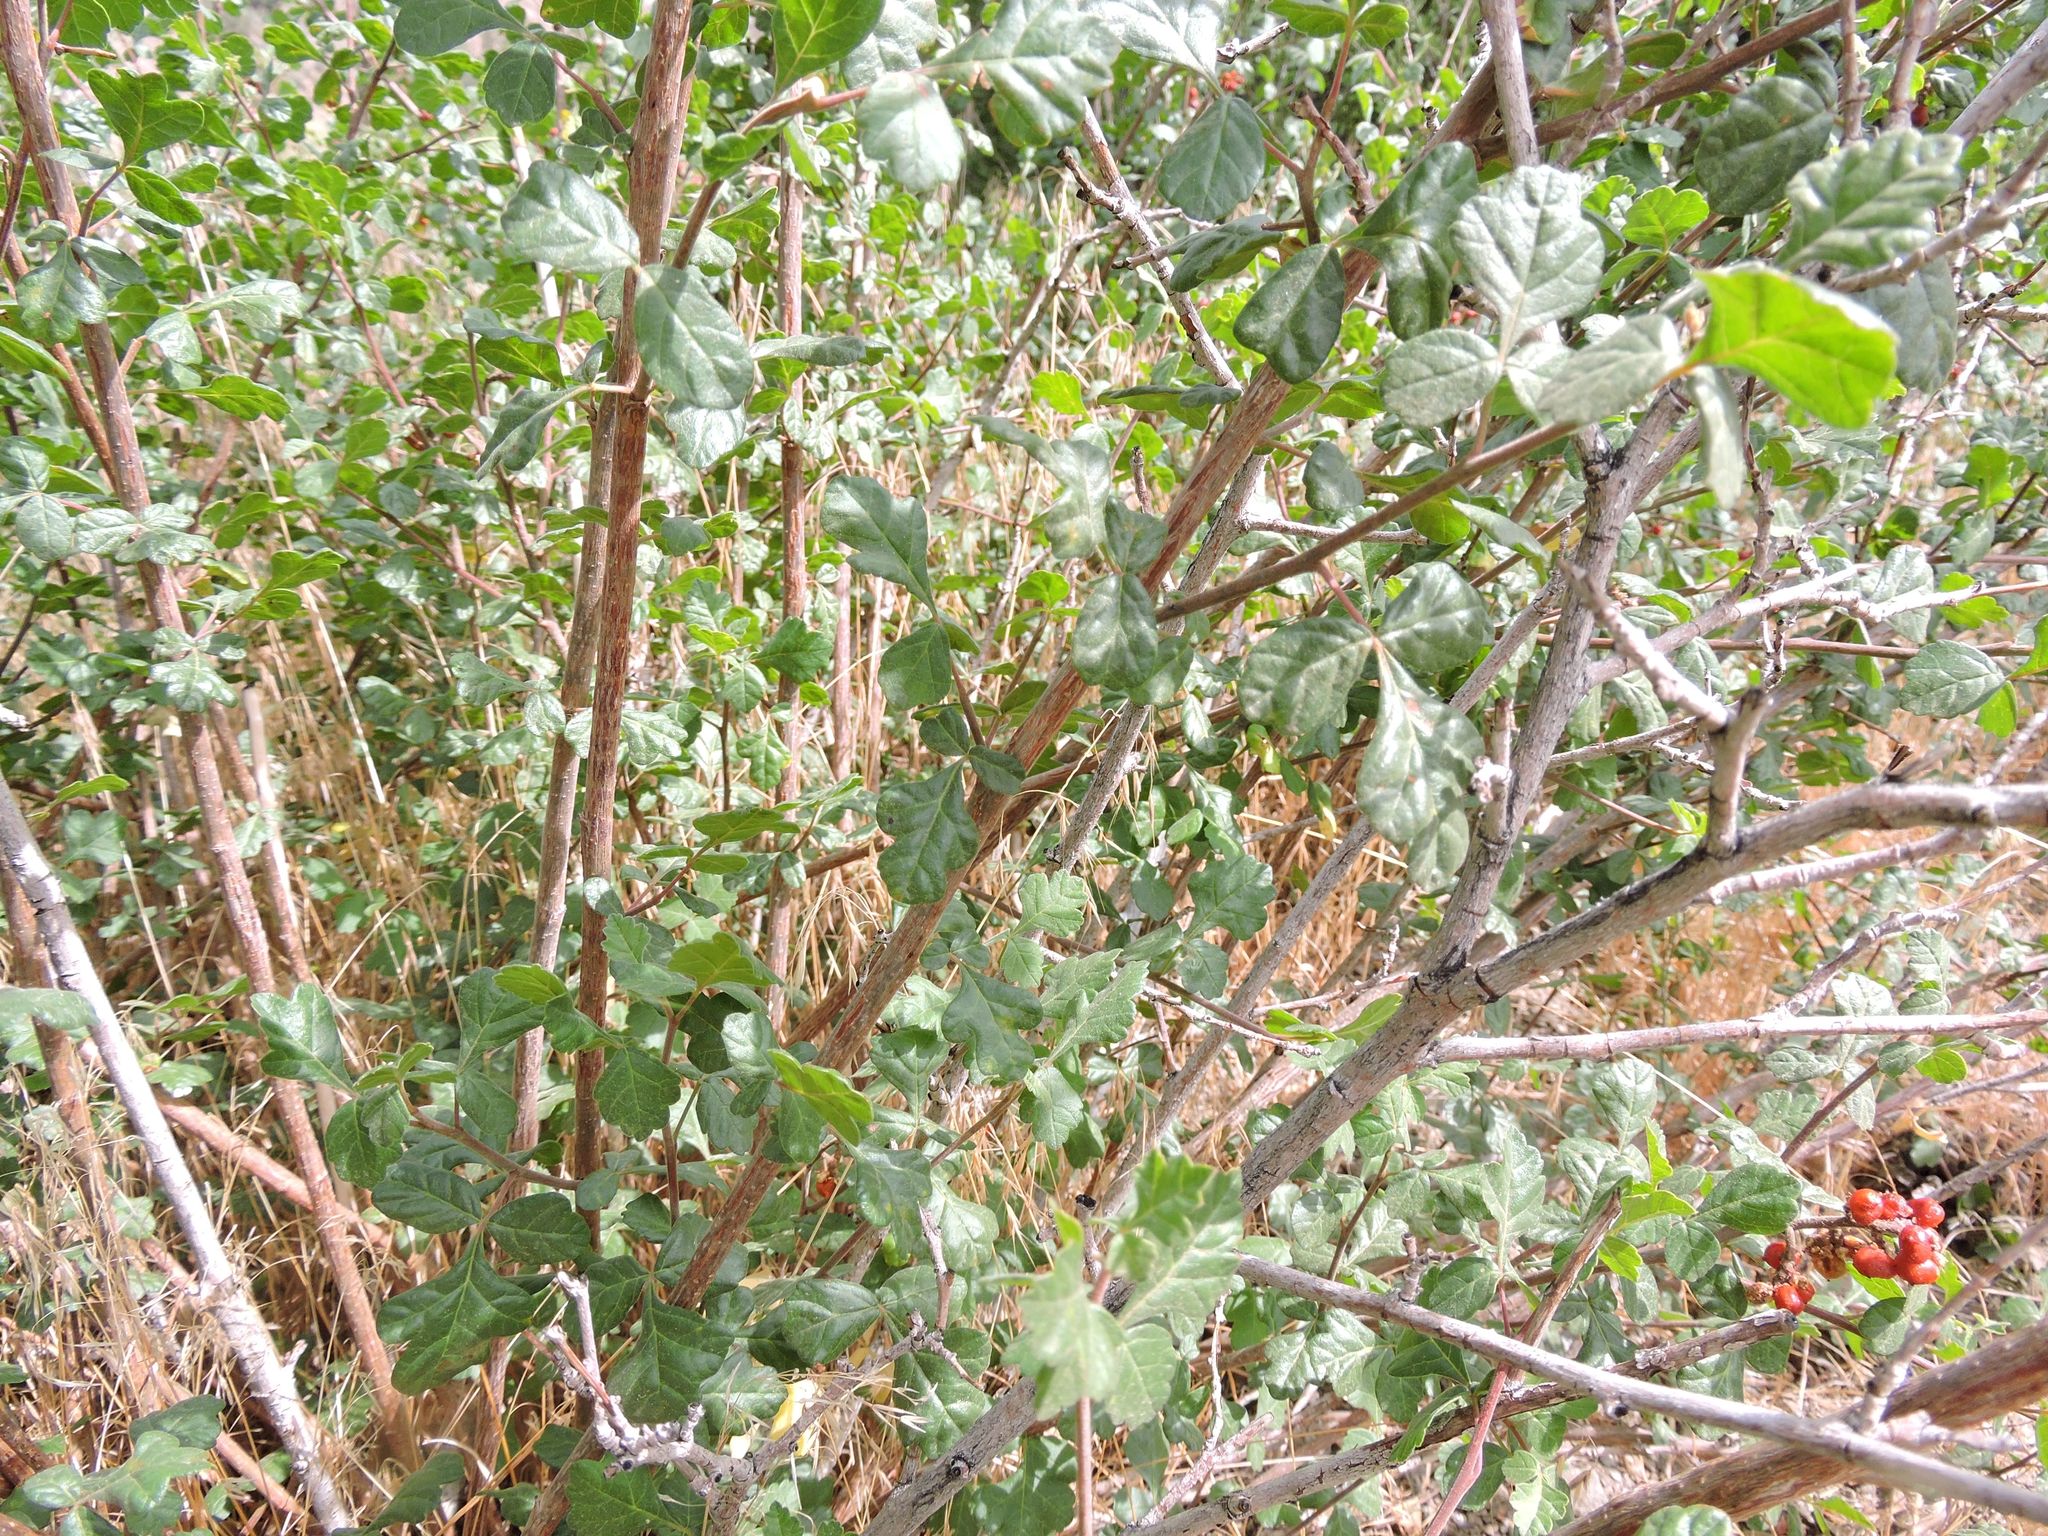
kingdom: Plantae
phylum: Tracheophyta
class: Magnoliopsida
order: Sapindales
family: Anacardiaceae
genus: Rhus
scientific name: Rhus aromatica
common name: Aromatic sumac
